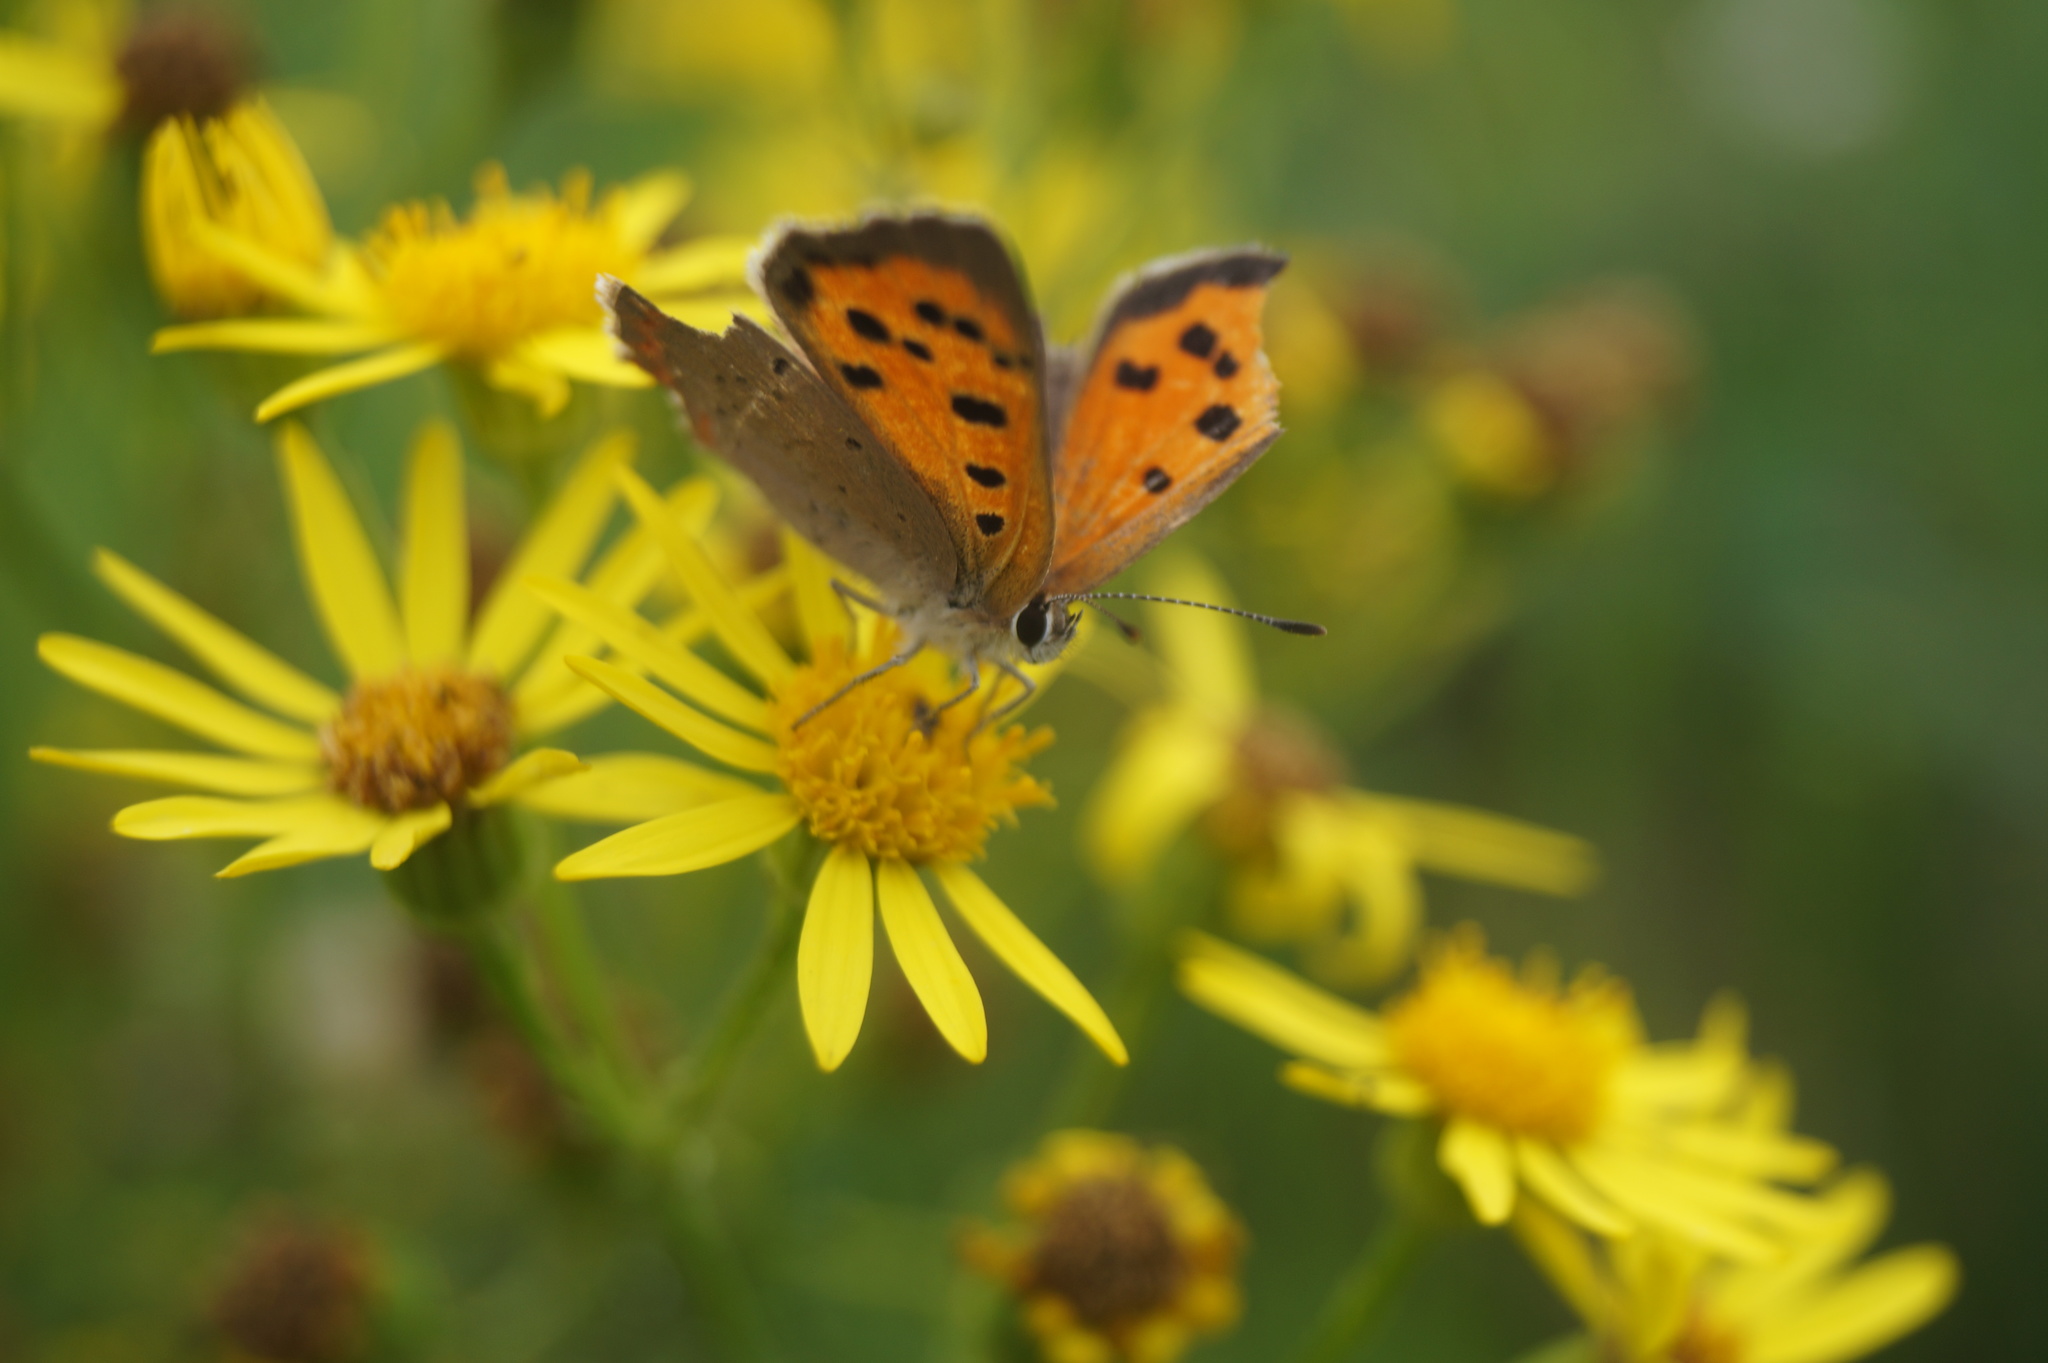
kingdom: Animalia
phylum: Arthropoda
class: Insecta
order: Lepidoptera
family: Lycaenidae
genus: Lycaena
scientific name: Lycaena phlaeas
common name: Small copper
